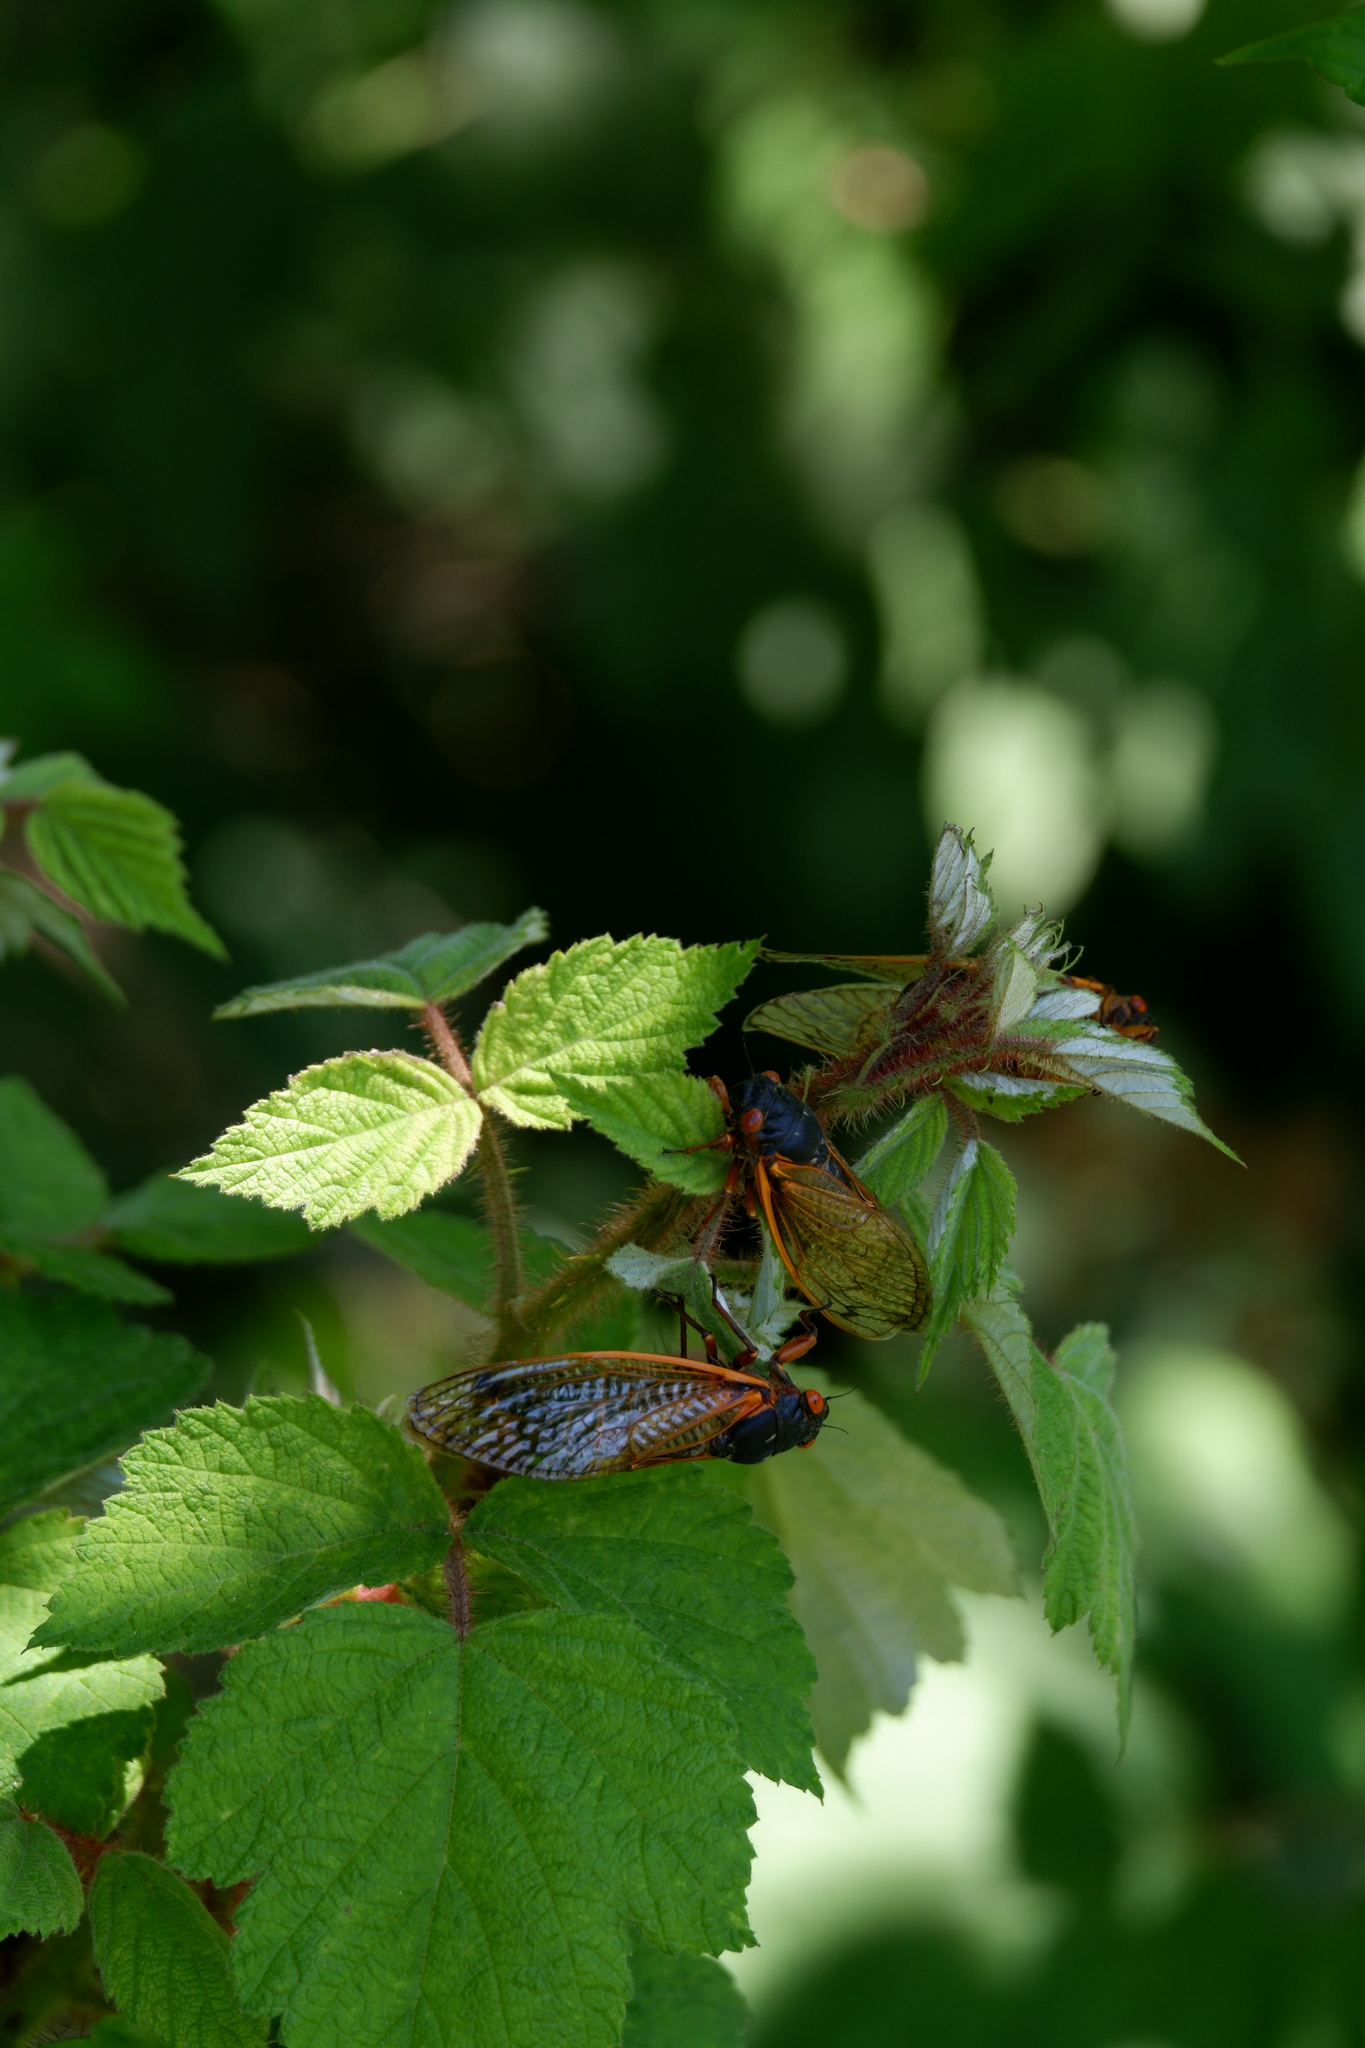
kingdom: Animalia
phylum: Arthropoda
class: Insecta
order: Hemiptera
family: Cicadidae
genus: Magicicada
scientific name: Magicicada septendecim
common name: Periodical cicada
